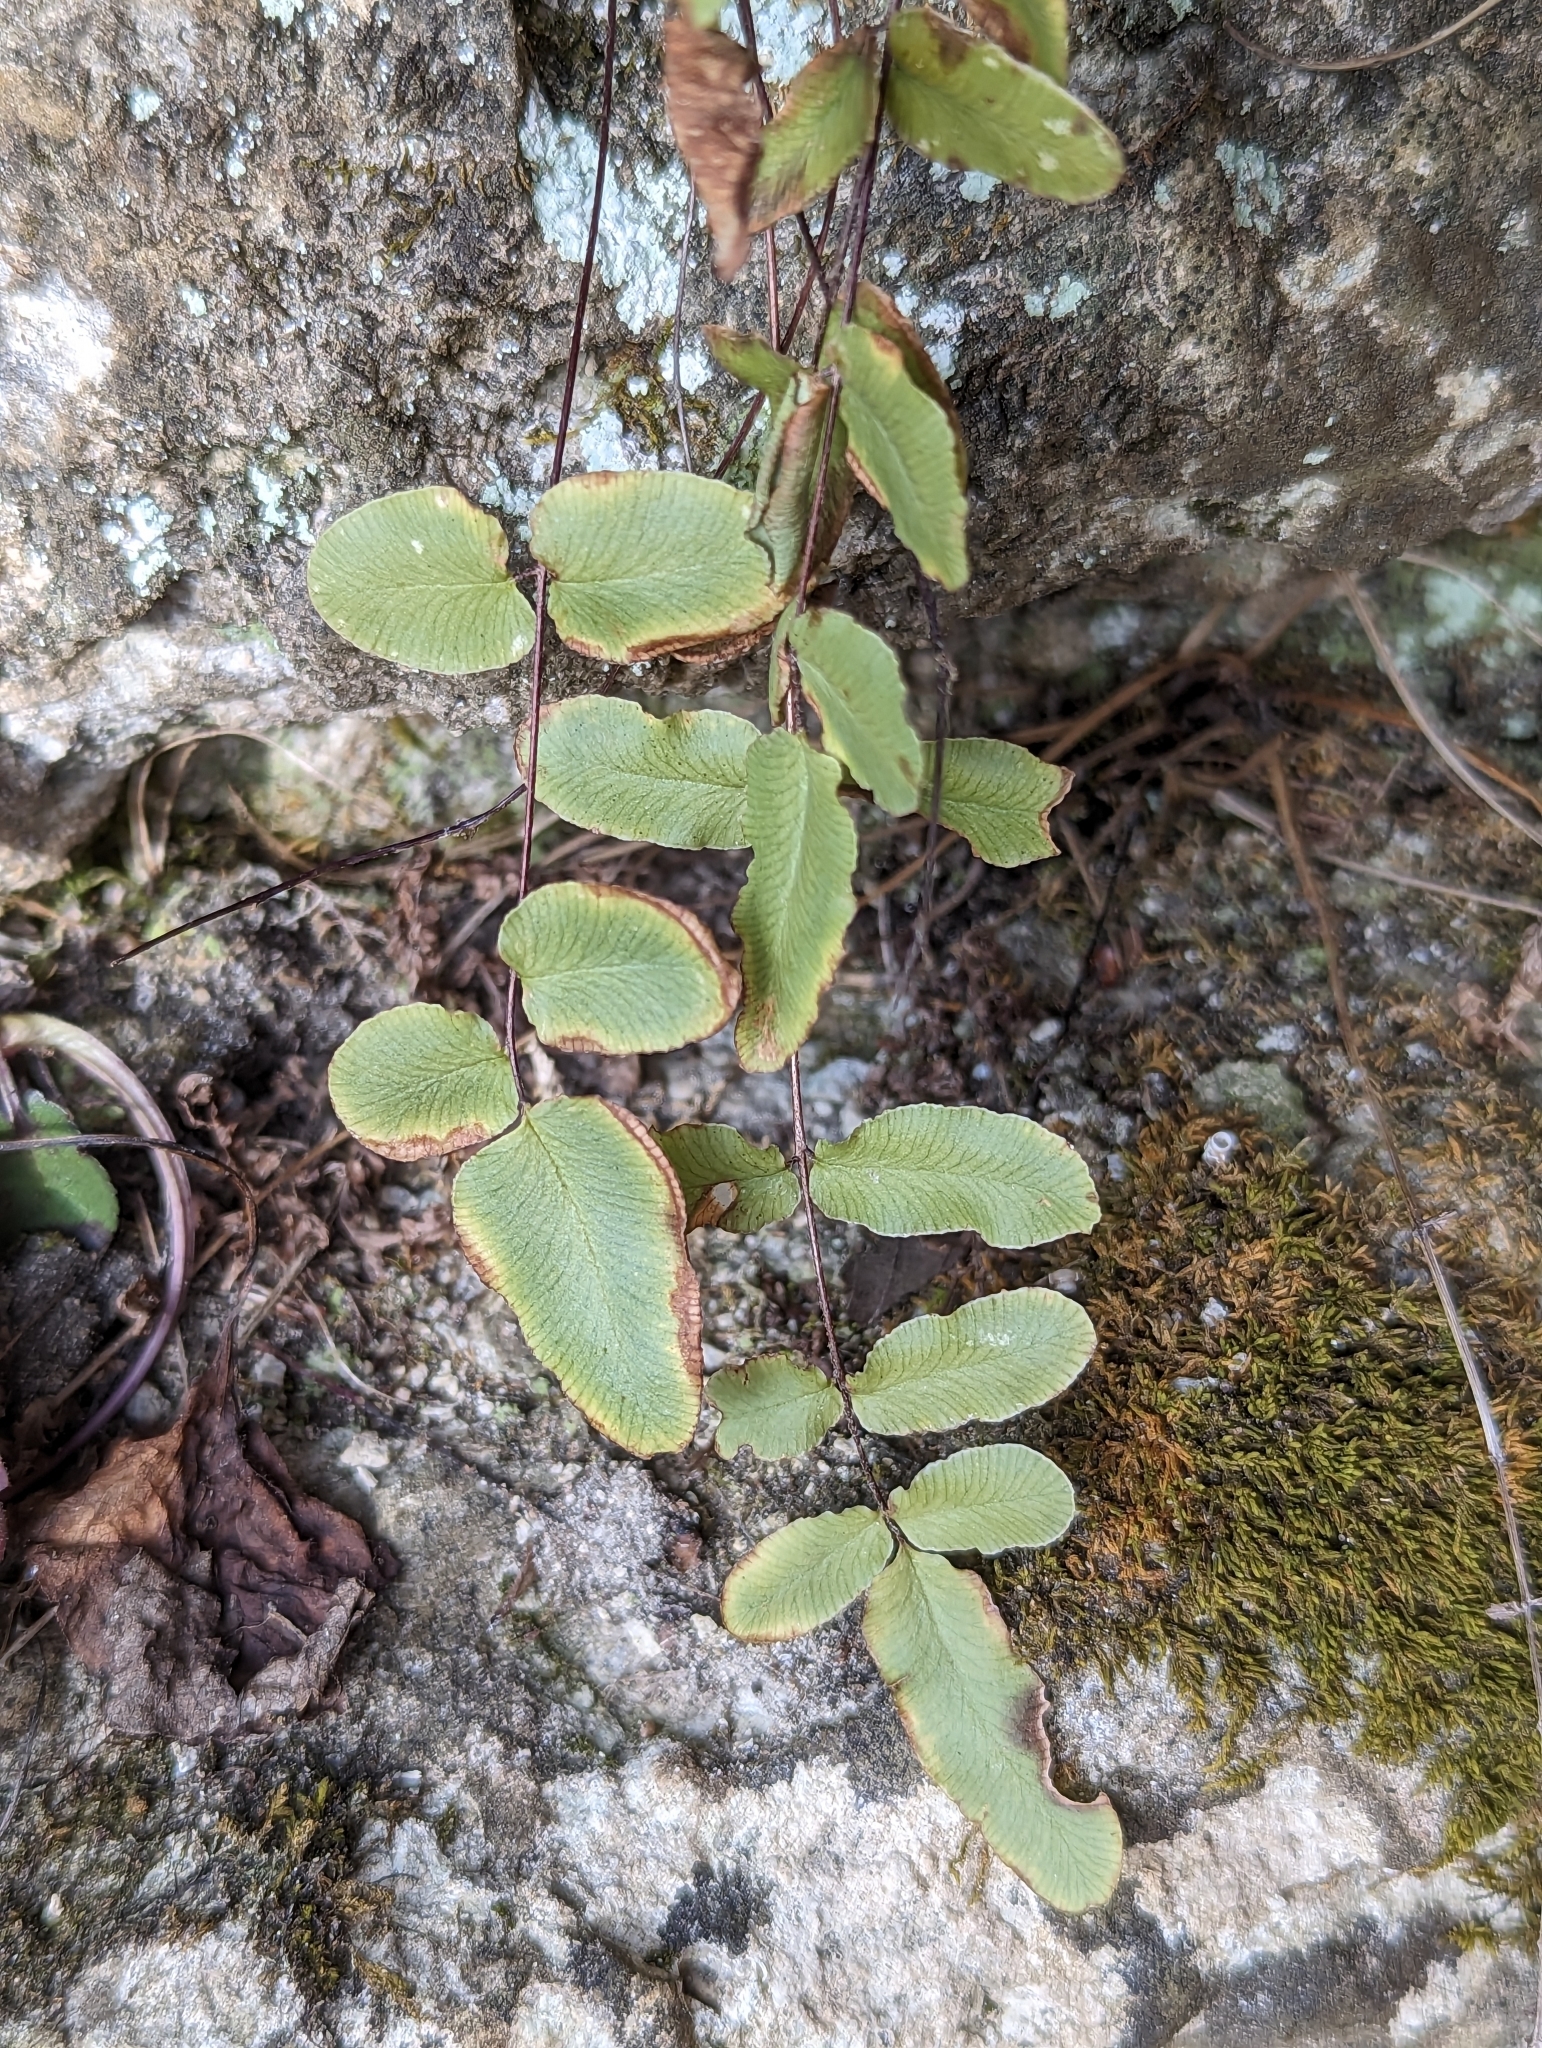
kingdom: Plantae
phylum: Tracheophyta
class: Polypodiopsida
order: Polypodiales
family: Pteridaceae
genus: Pellaea
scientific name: Pellaea glabella
